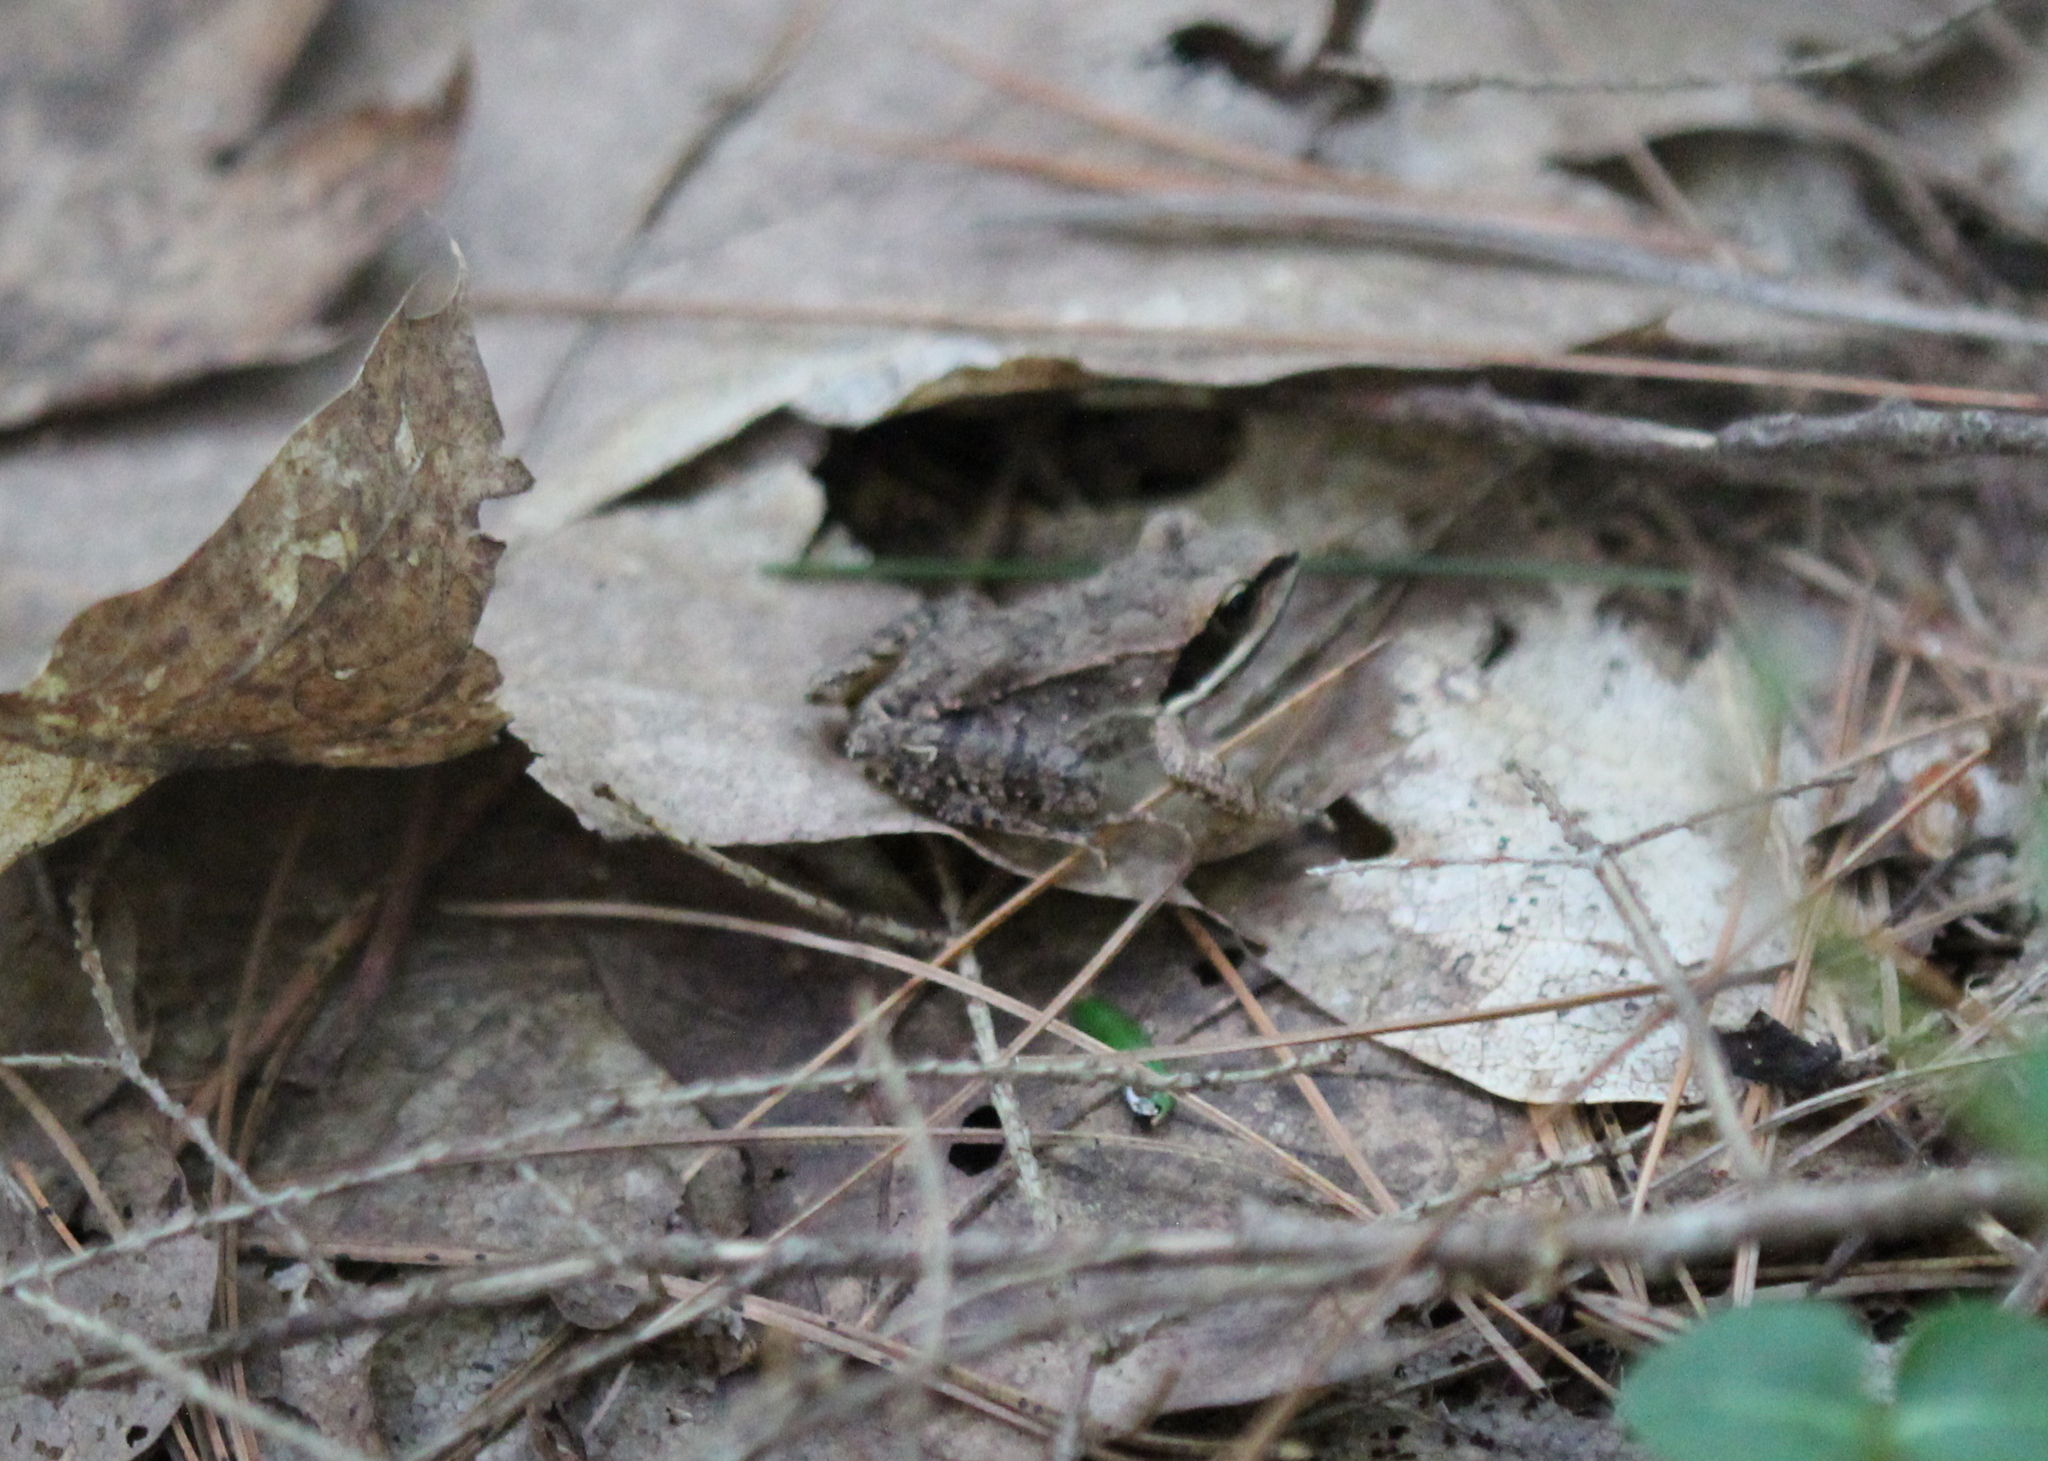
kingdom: Animalia
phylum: Chordata
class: Amphibia
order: Anura
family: Ranidae
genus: Lithobates
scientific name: Lithobates sylvaticus
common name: Wood frog
